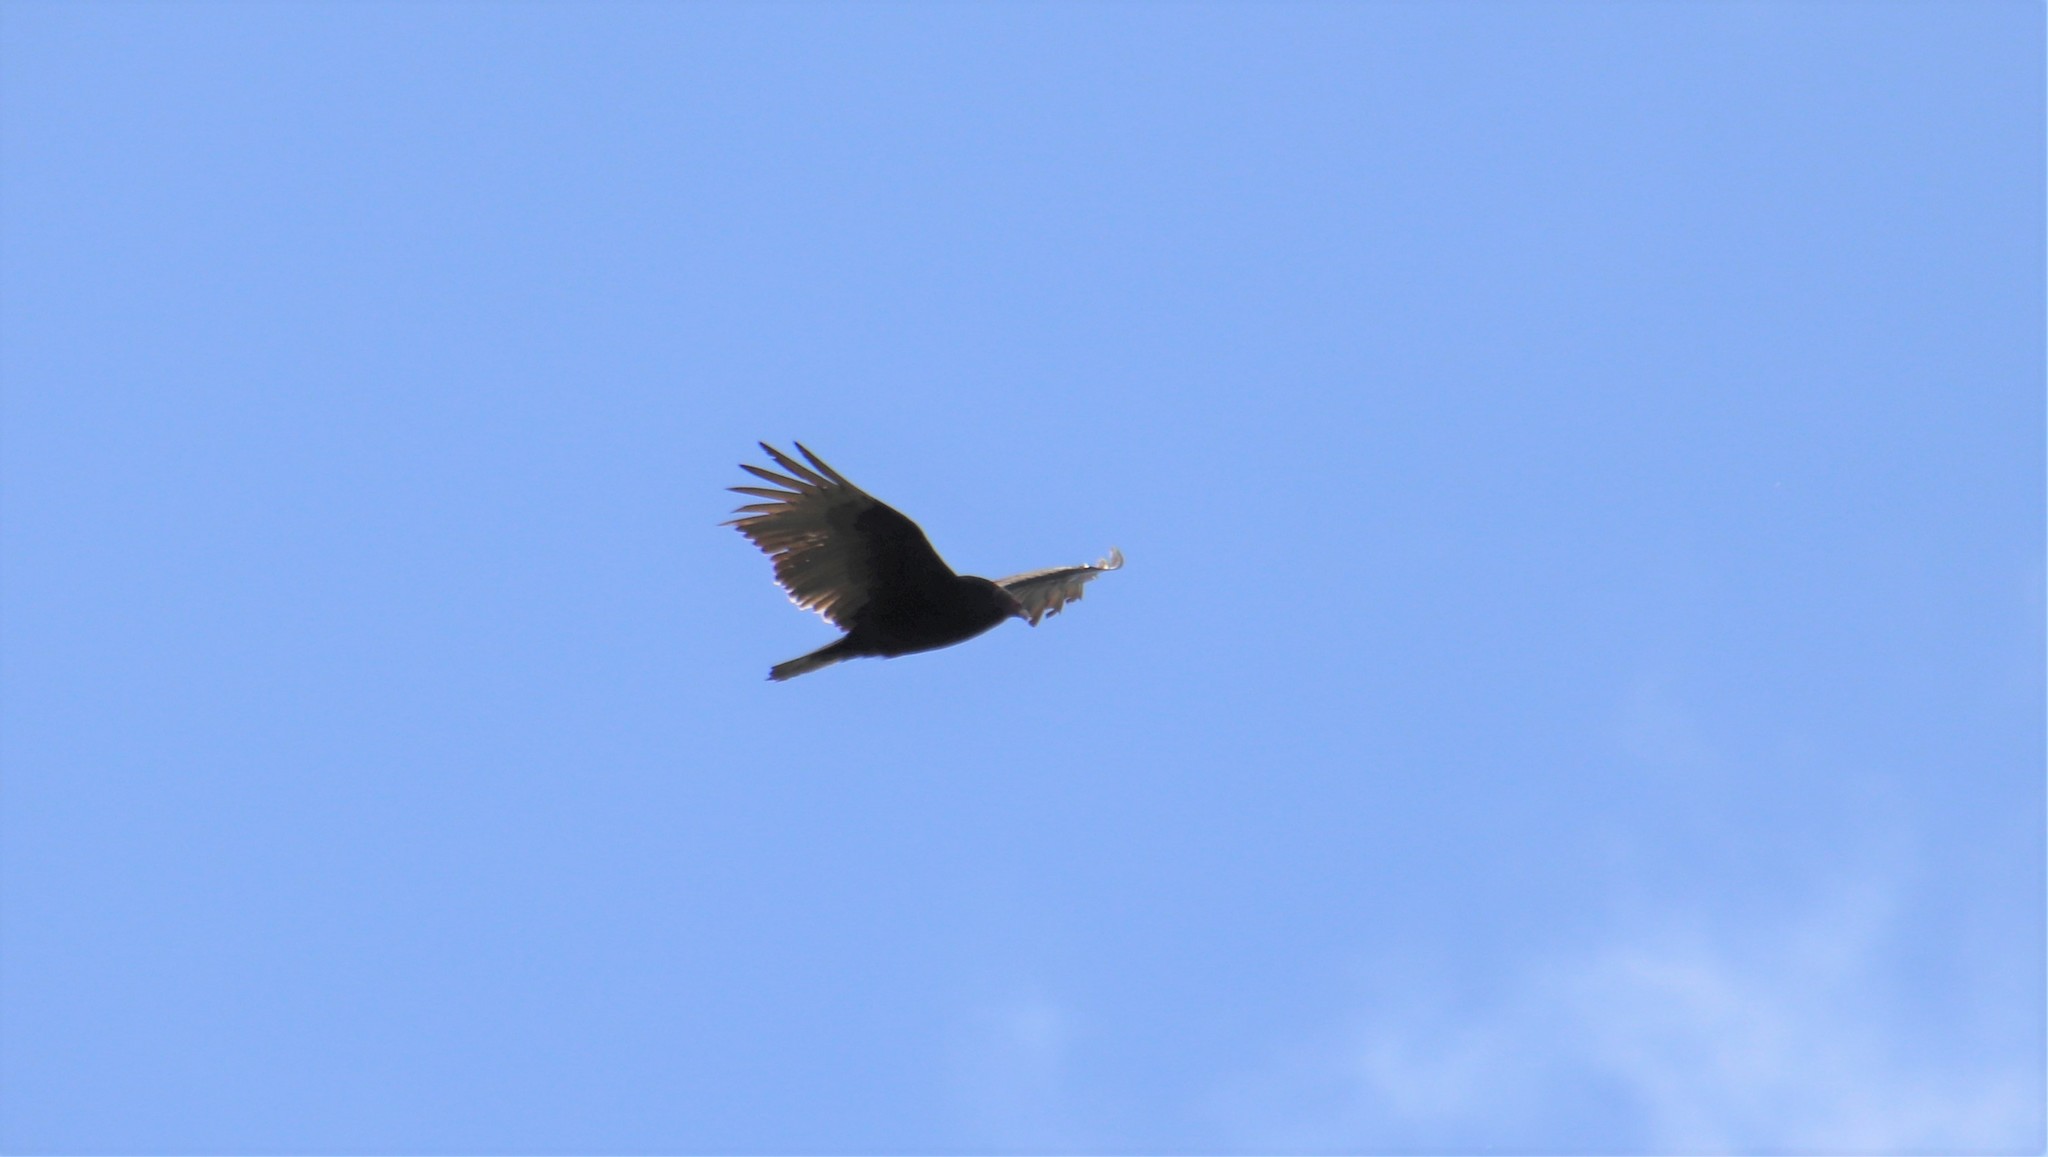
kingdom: Animalia
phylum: Chordata
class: Aves
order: Accipitriformes
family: Cathartidae
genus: Cathartes
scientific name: Cathartes aura
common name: Turkey vulture
